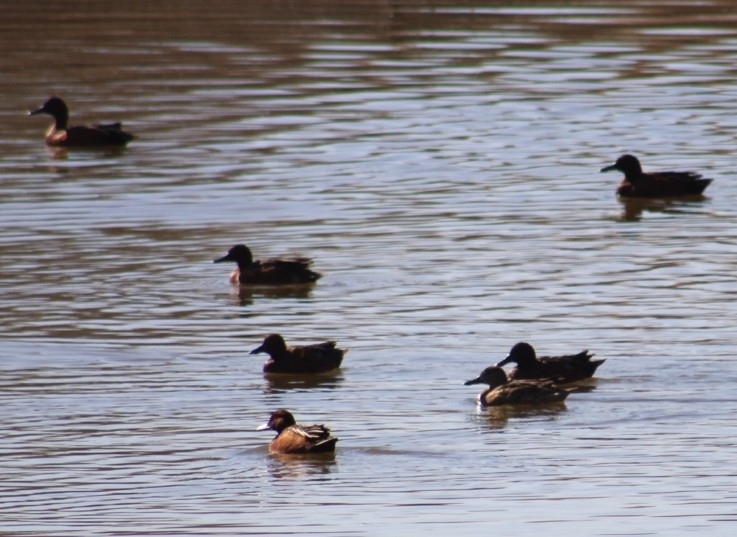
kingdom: Animalia
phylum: Chordata
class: Aves
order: Anseriformes
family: Anatidae
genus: Spatula
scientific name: Spatula cyanoptera
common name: Cinnamon teal
